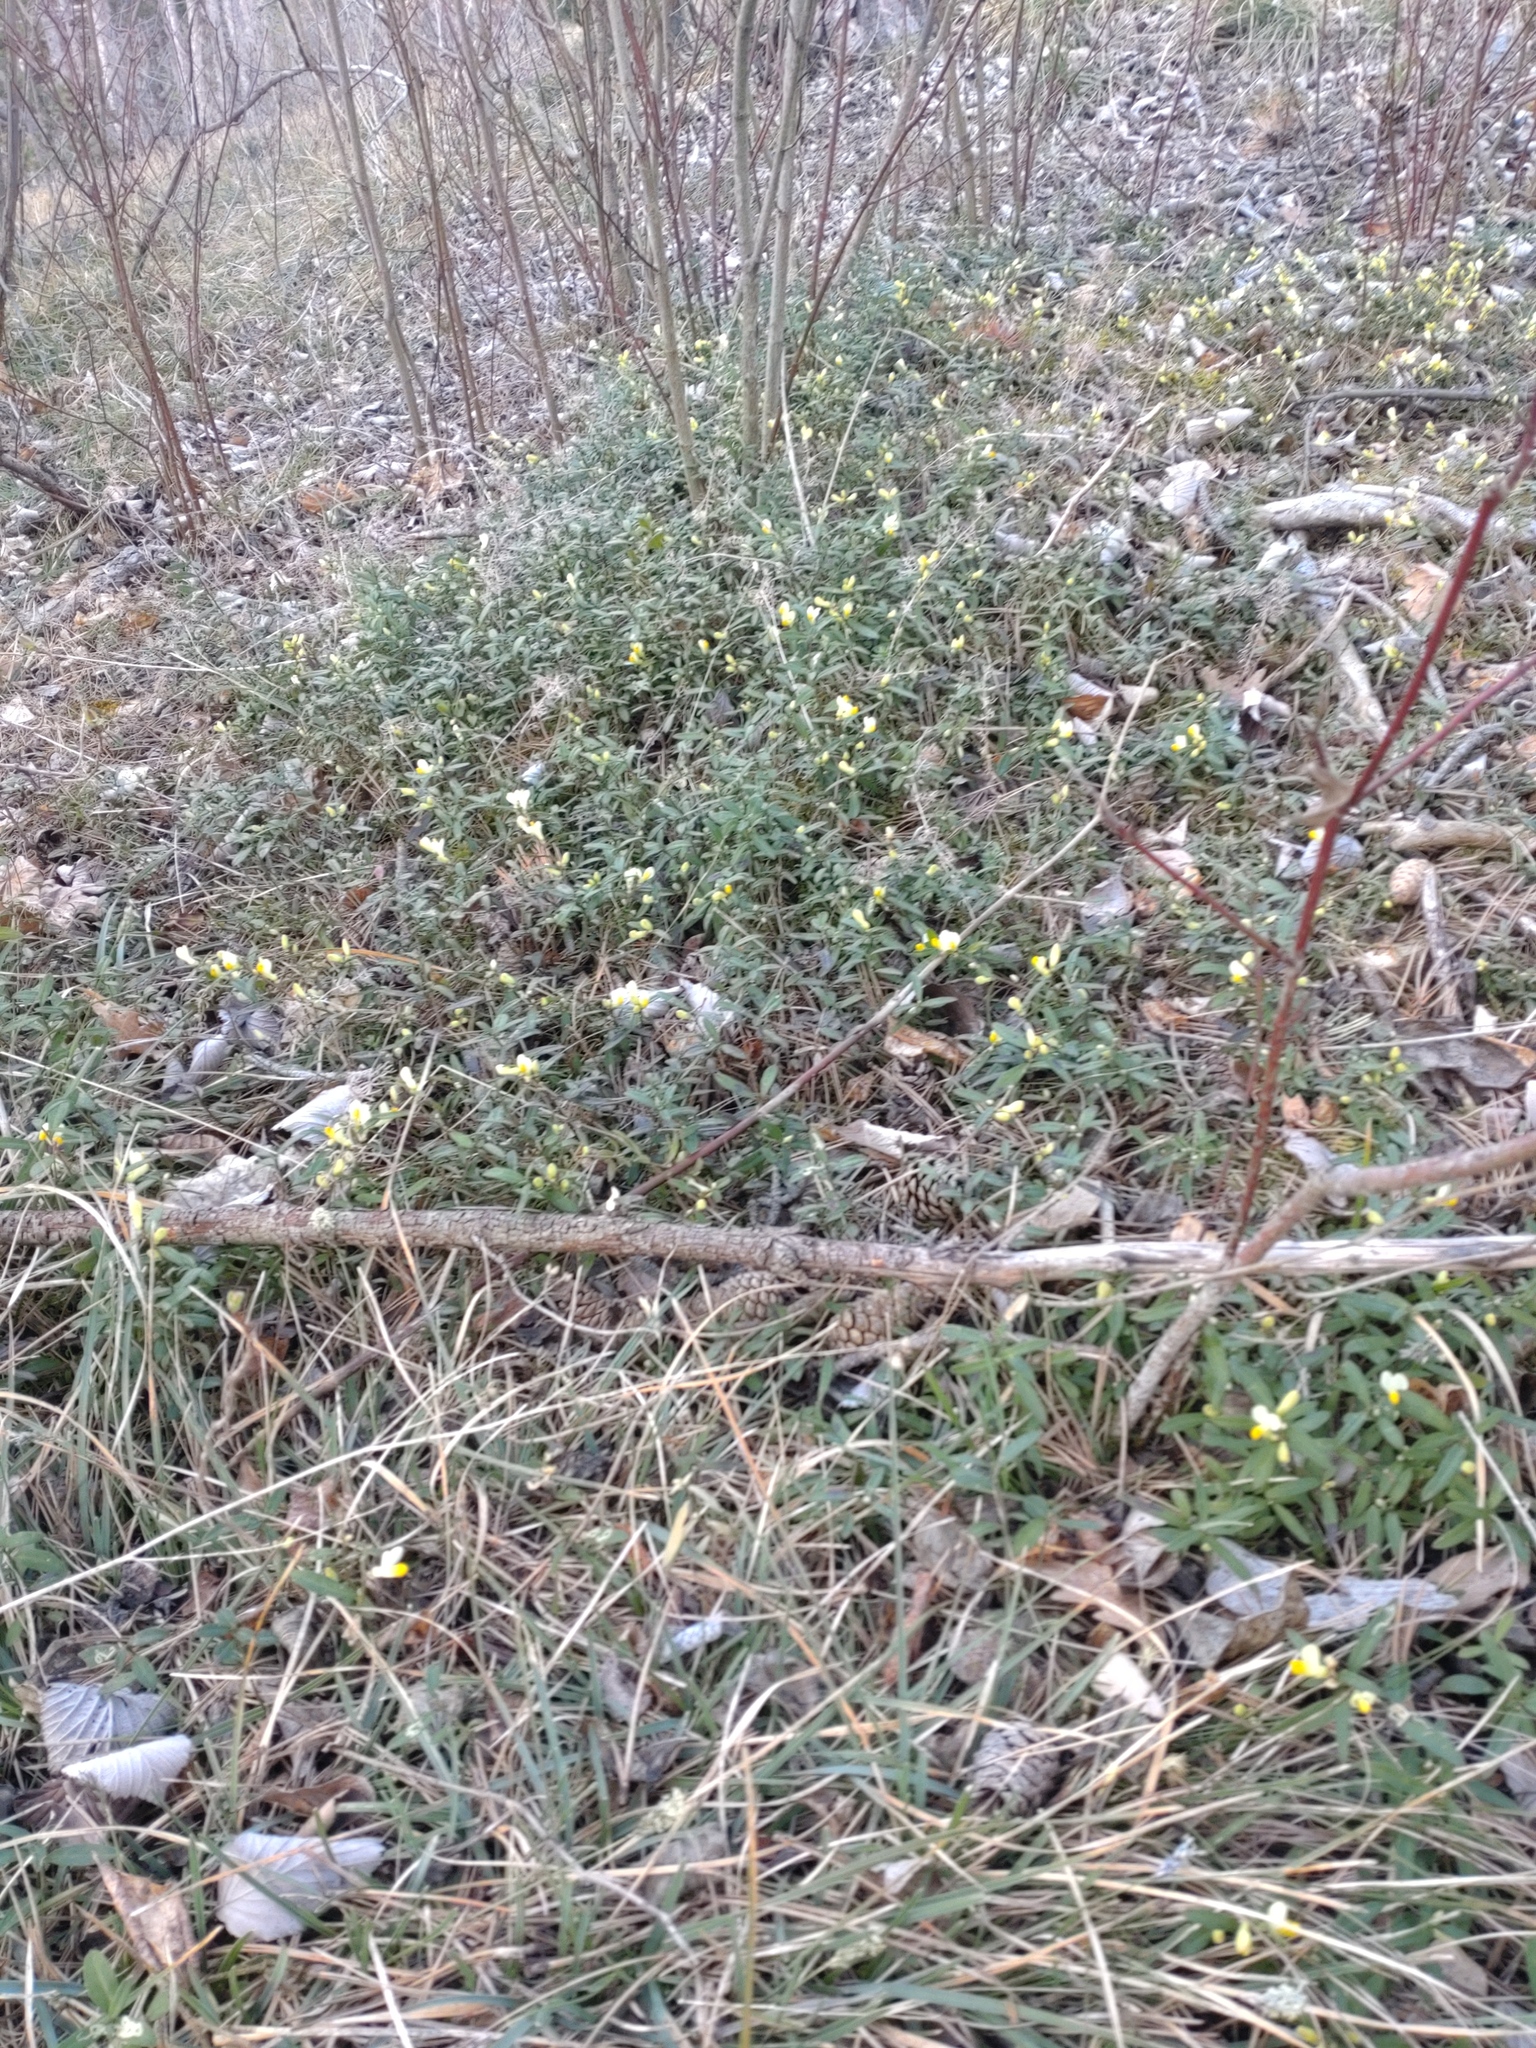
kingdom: Plantae
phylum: Tracheophyta
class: Magnoliopsida
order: Fabales
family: Polygalaceae
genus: Polygaloides
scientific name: Polygaloides chamaebuxus
